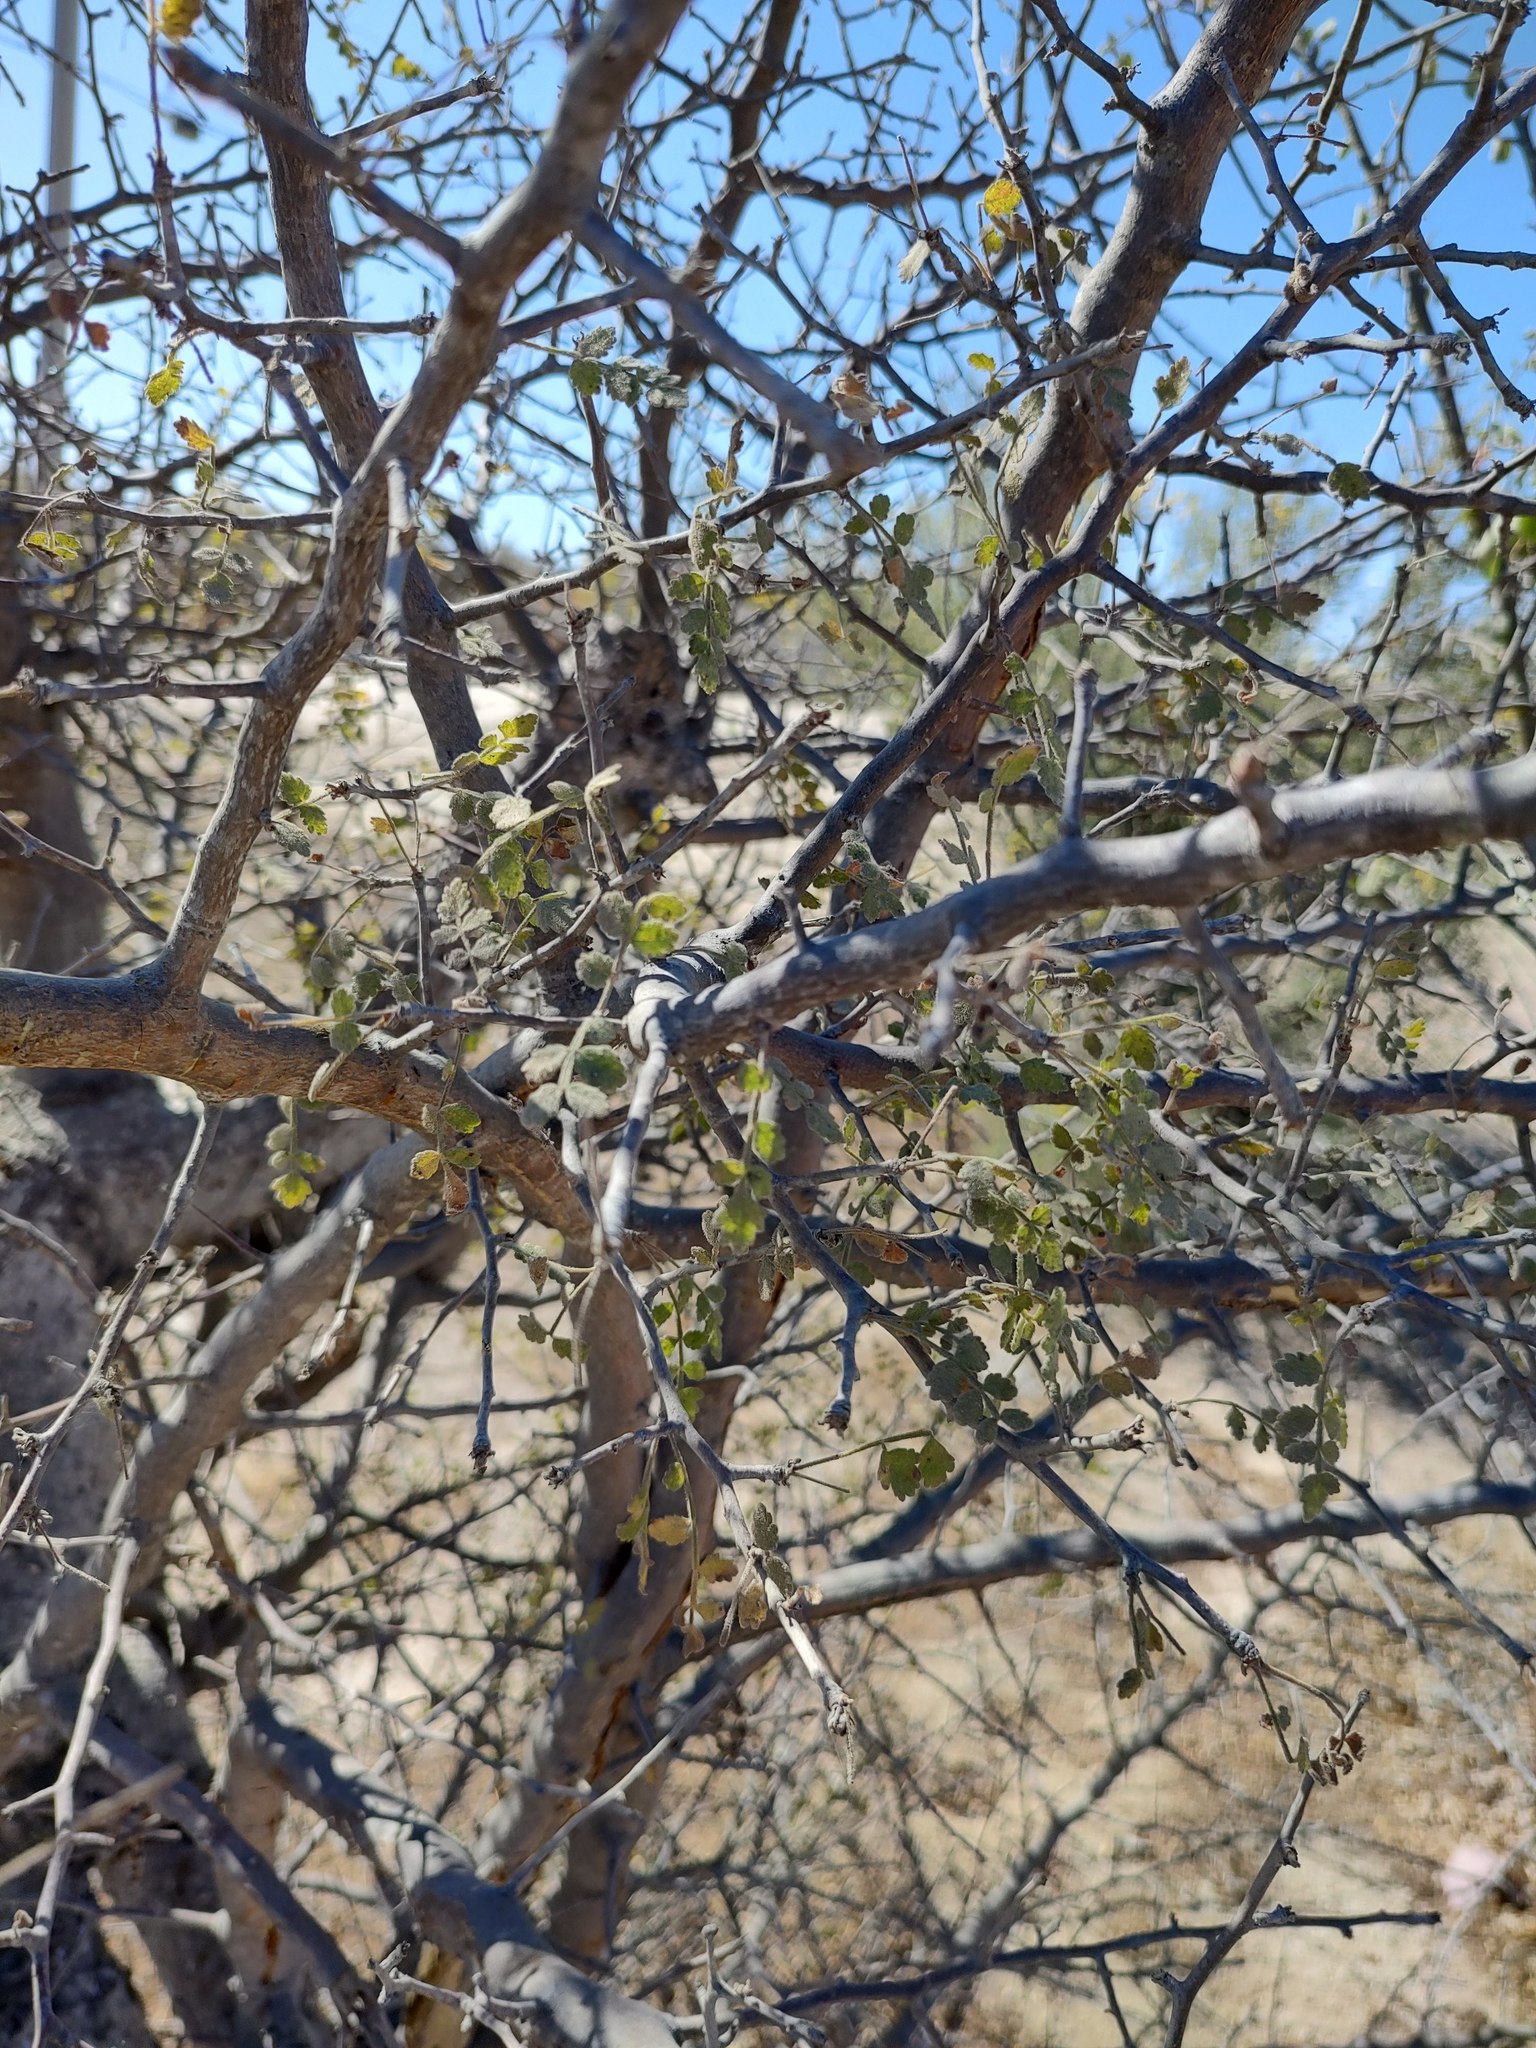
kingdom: Plantae
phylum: Tracheophyta
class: Magnoliopsida
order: Sapindales
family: Burseraceae
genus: Bursera
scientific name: Bursera filicifolia
